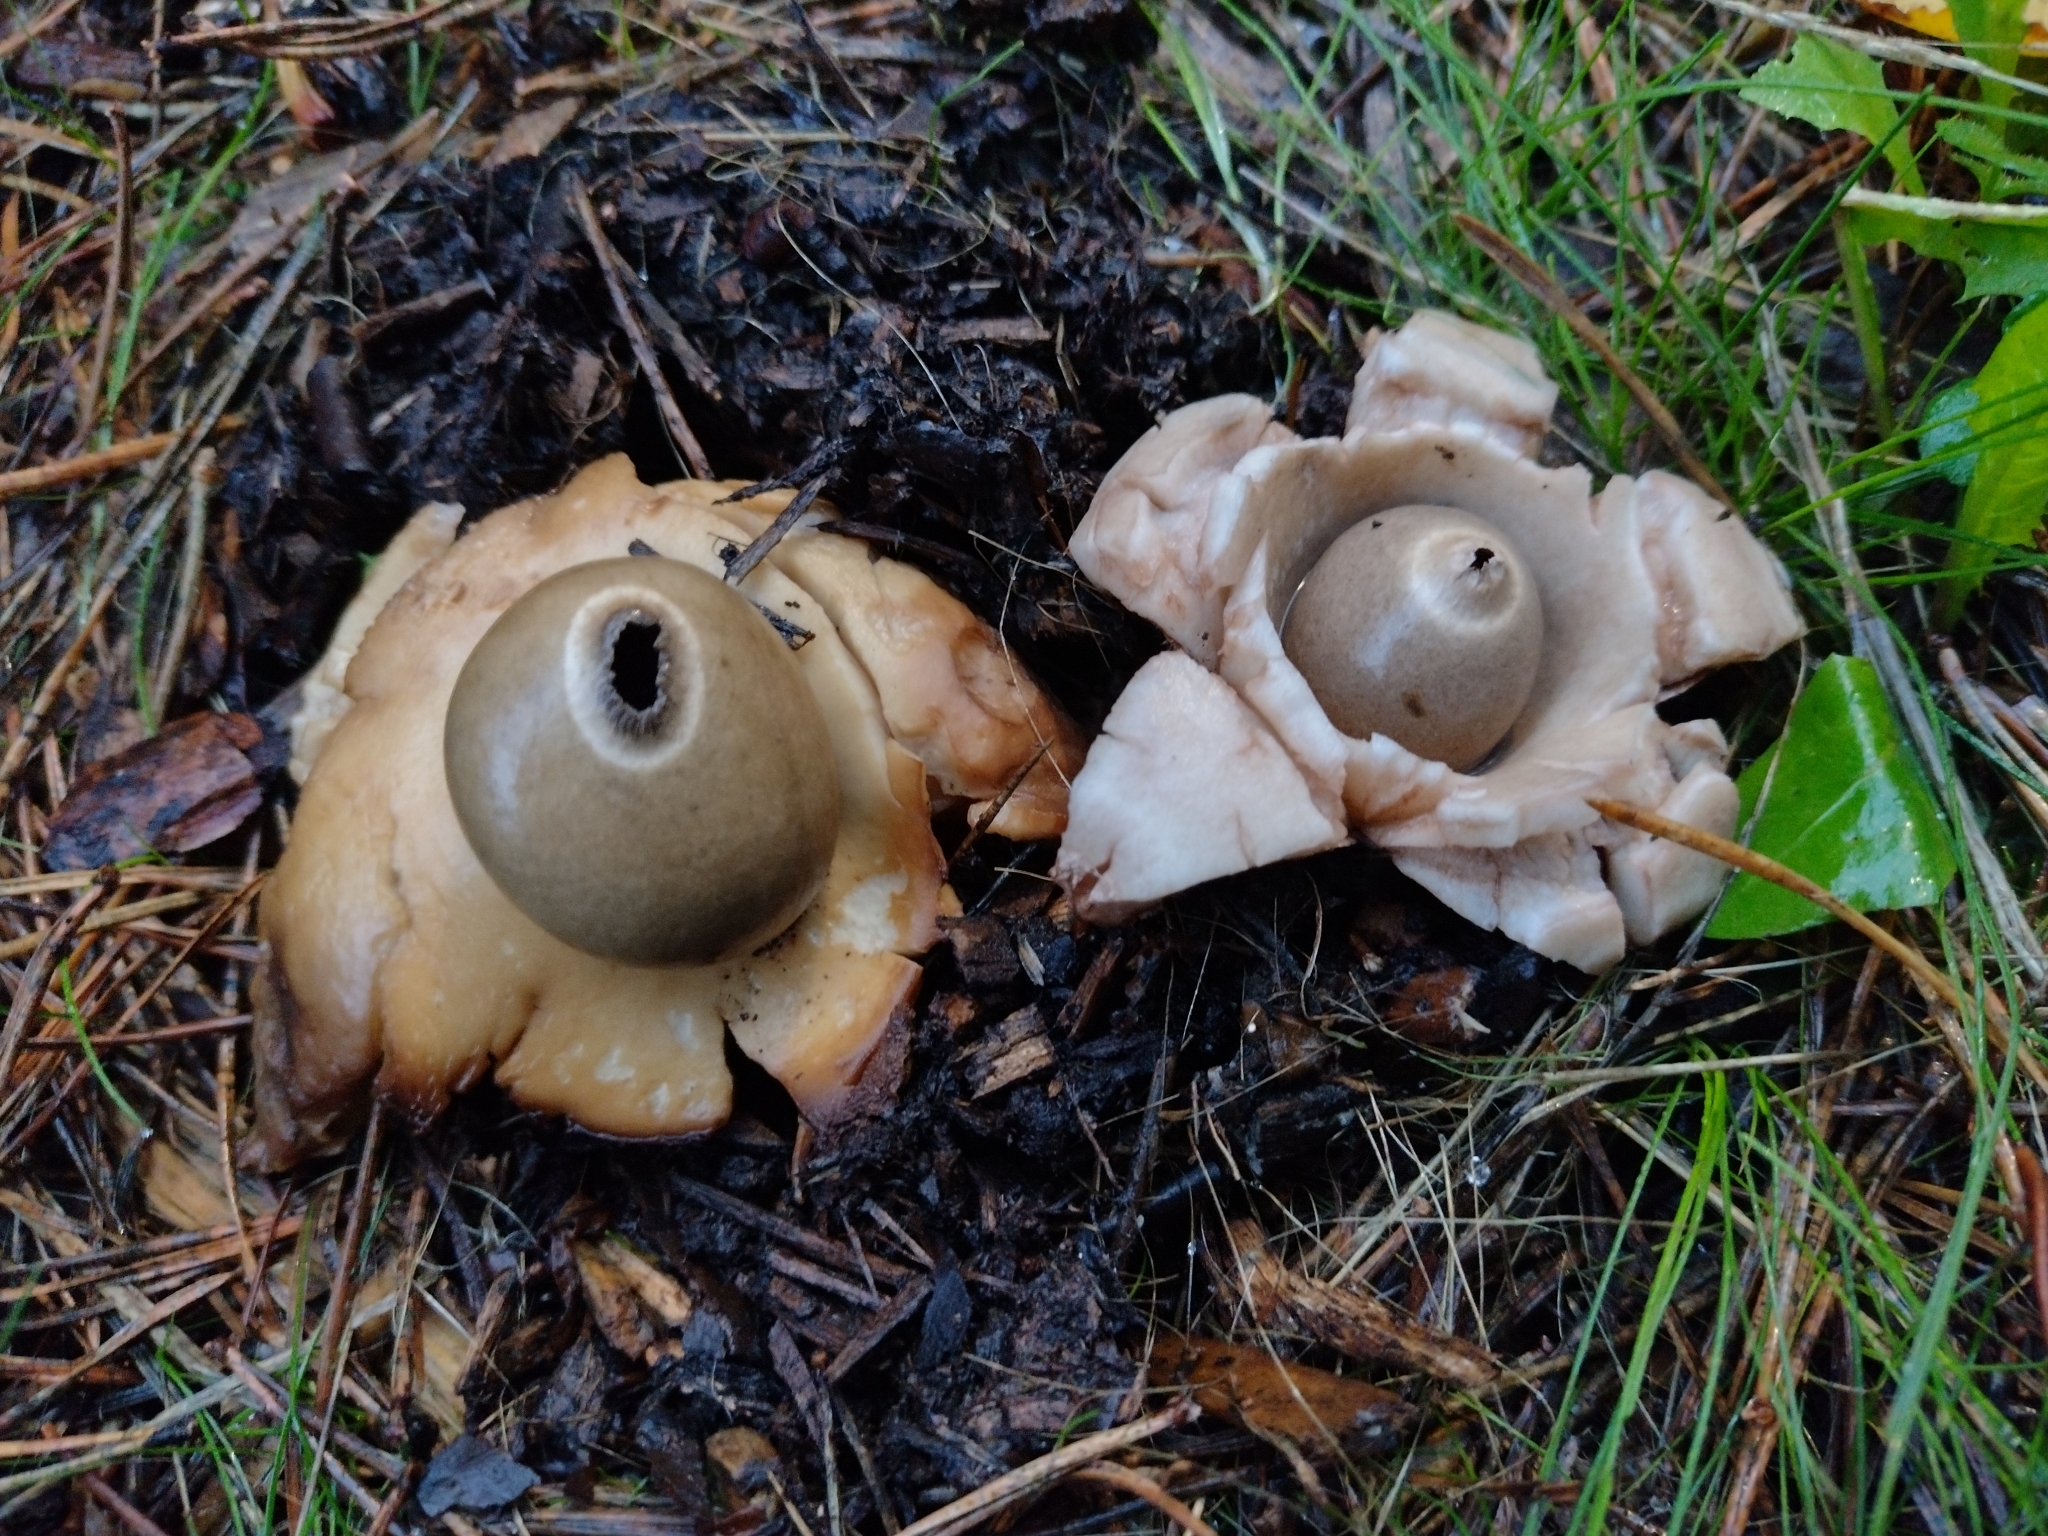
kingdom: Fungi
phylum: Basidiomycota
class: Agaricomycetes
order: Geastrales
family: Geastraceae
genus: Geastrum
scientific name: Geastrum michelianum
